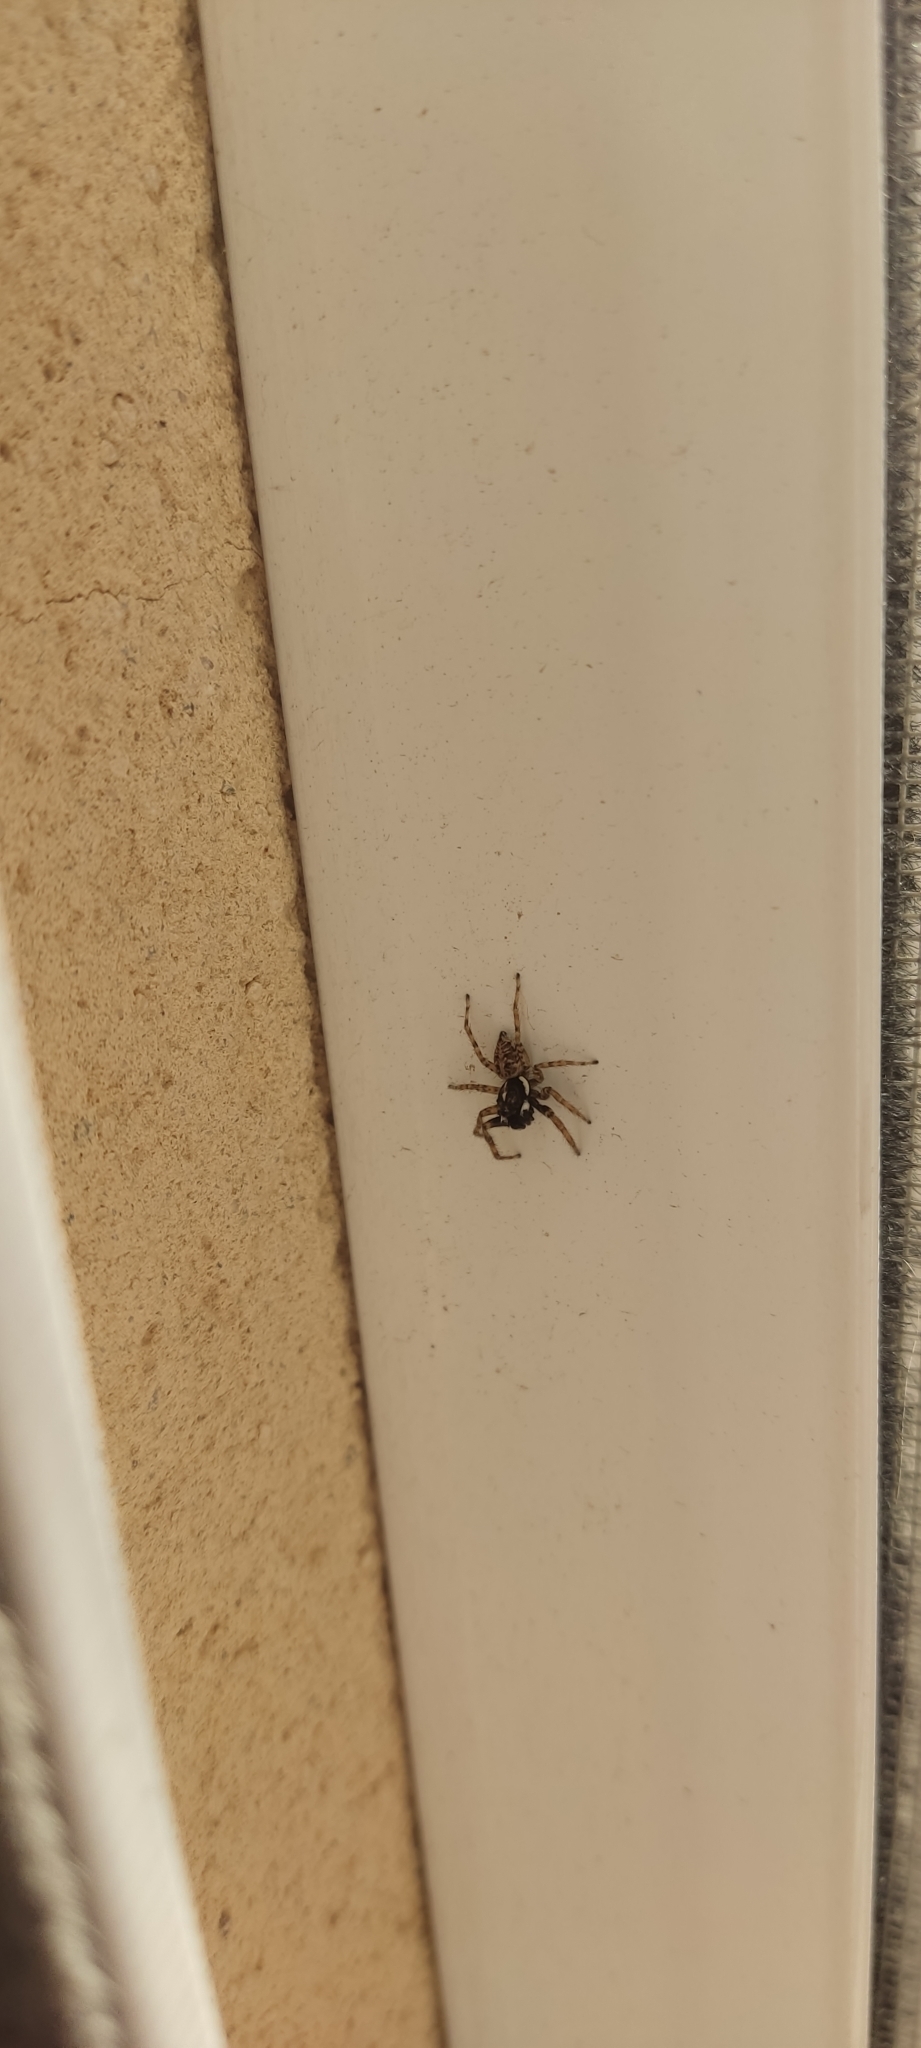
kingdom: Animalia
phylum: Arthropoda
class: Arachnida
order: Araneae
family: Salticidae
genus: Menemerus
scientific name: Menemerus semilimbatus
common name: Jumping spider
